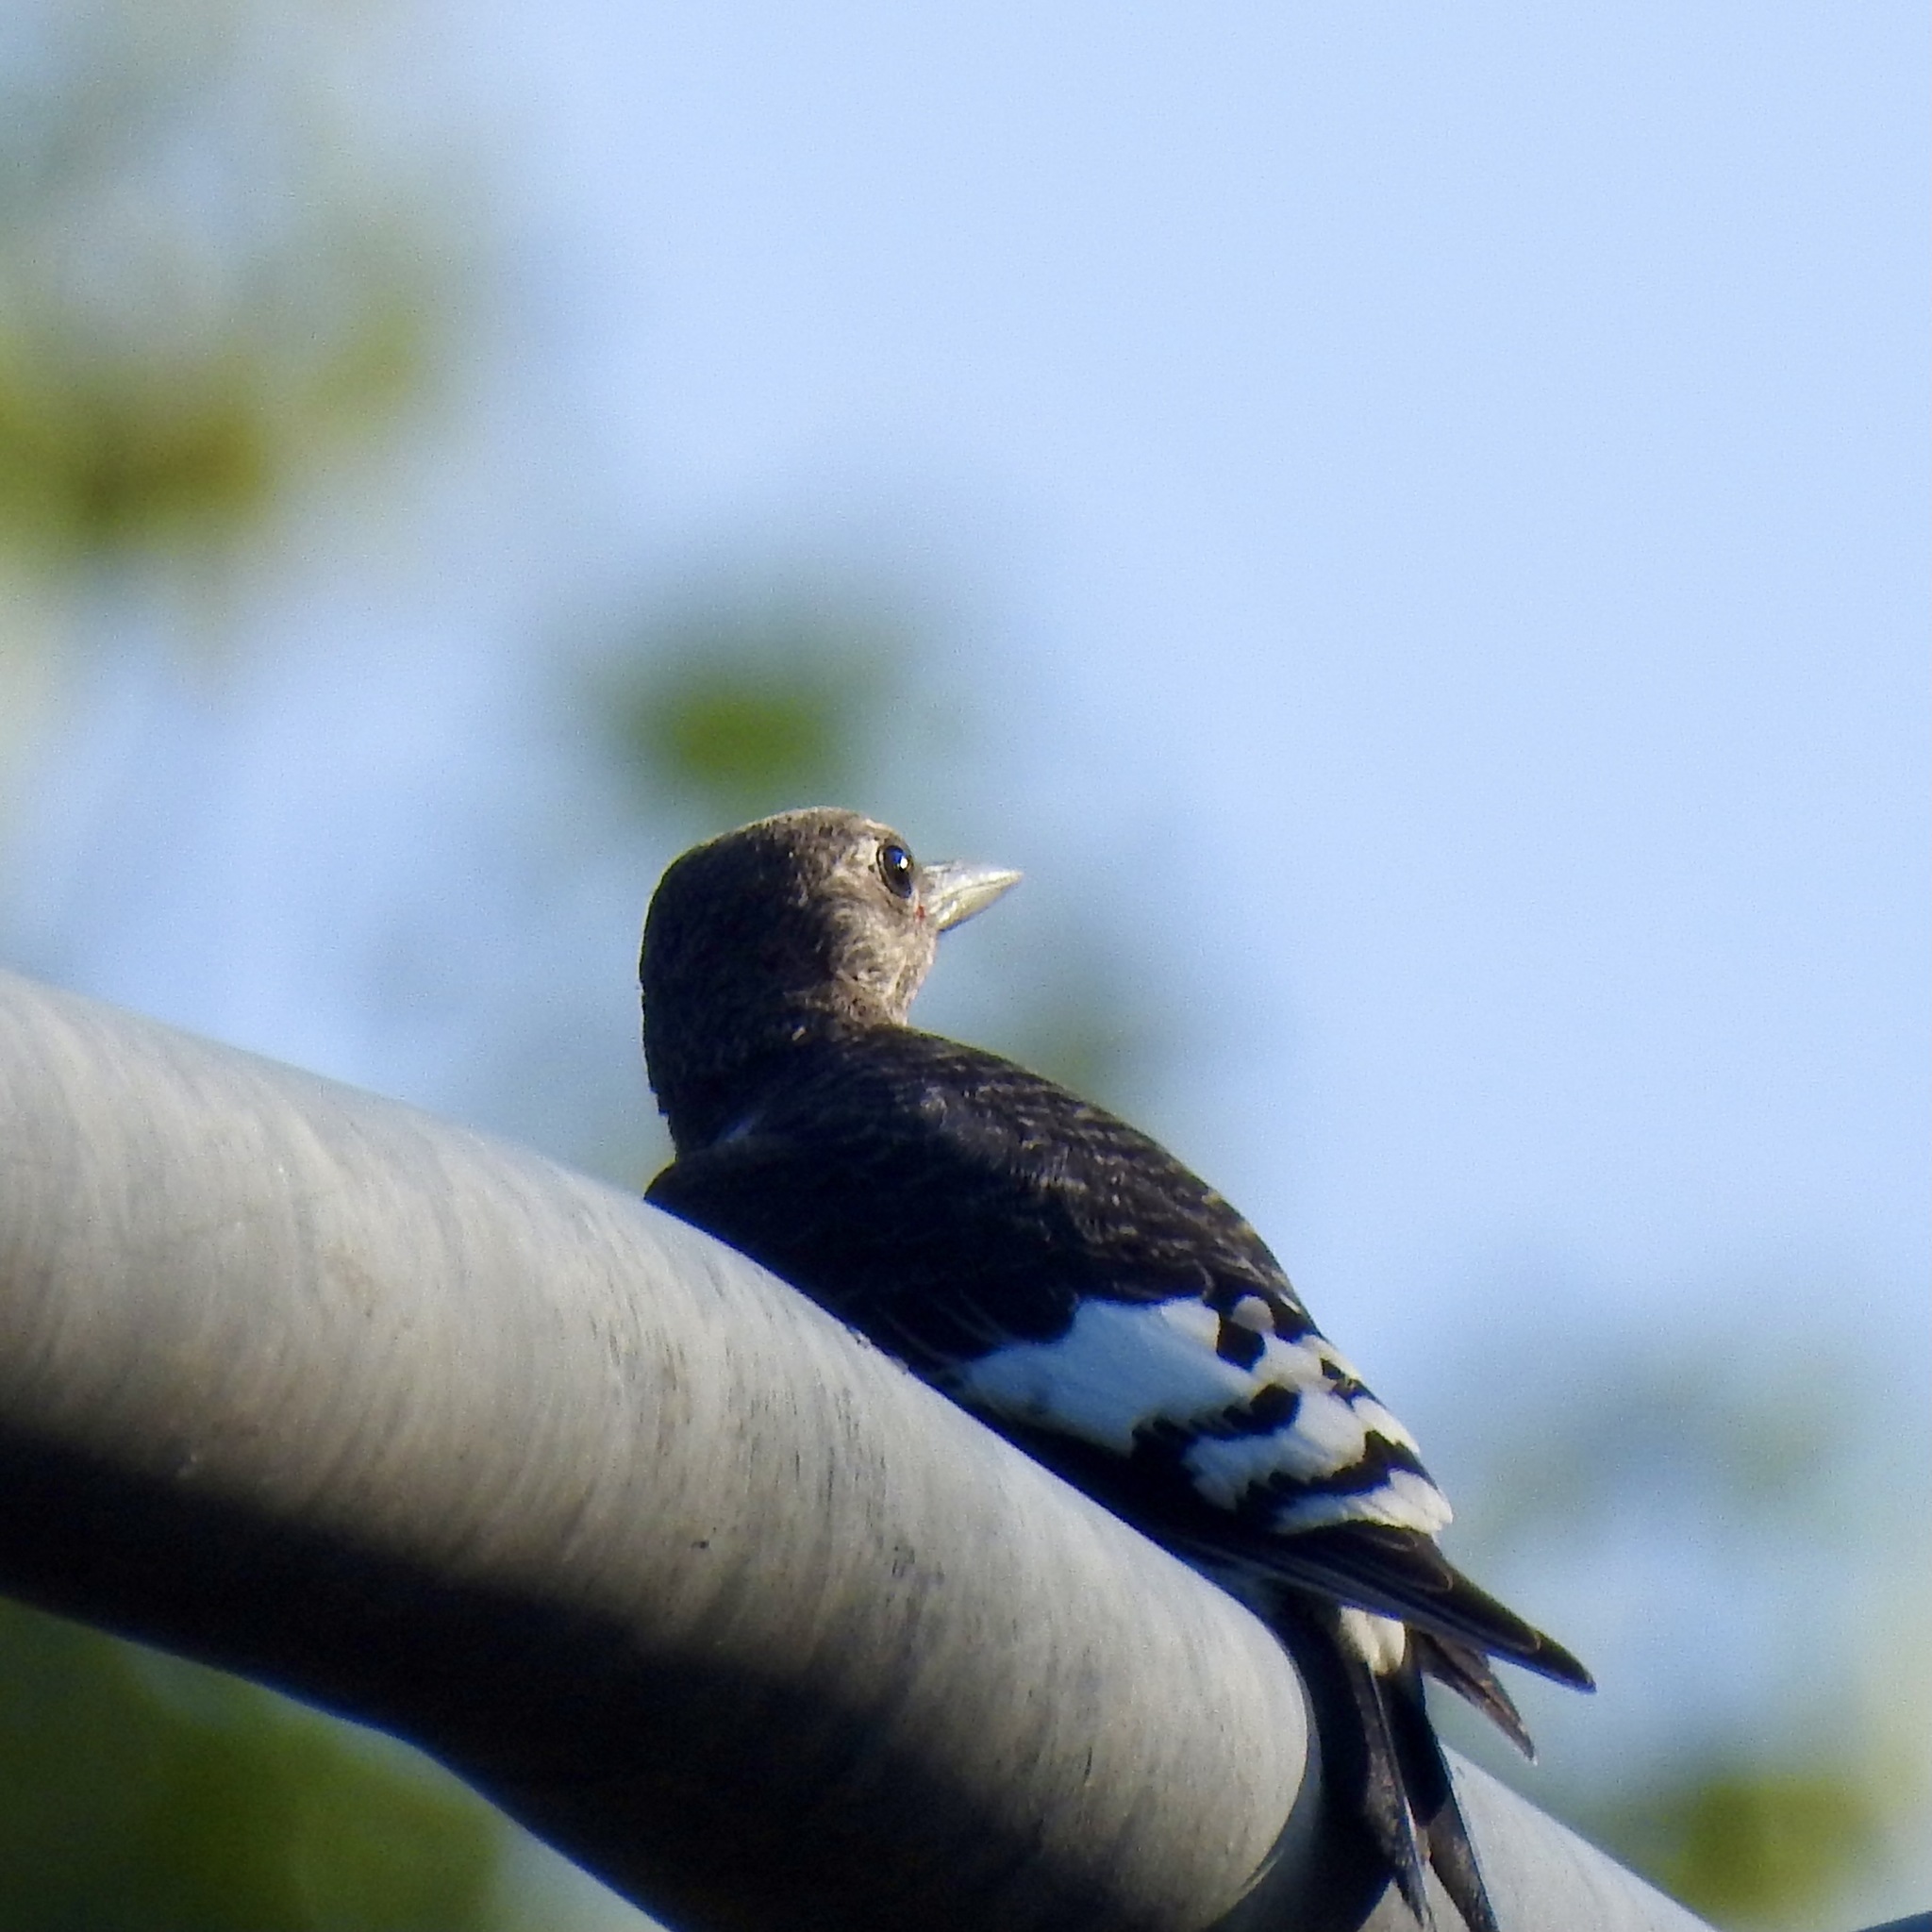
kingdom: Animalia
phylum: Chordata
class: Aves
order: Piciformes
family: Picidae
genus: Melanerpes
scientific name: Melanerpes erythrocephalus
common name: Red-headed woodpecker
